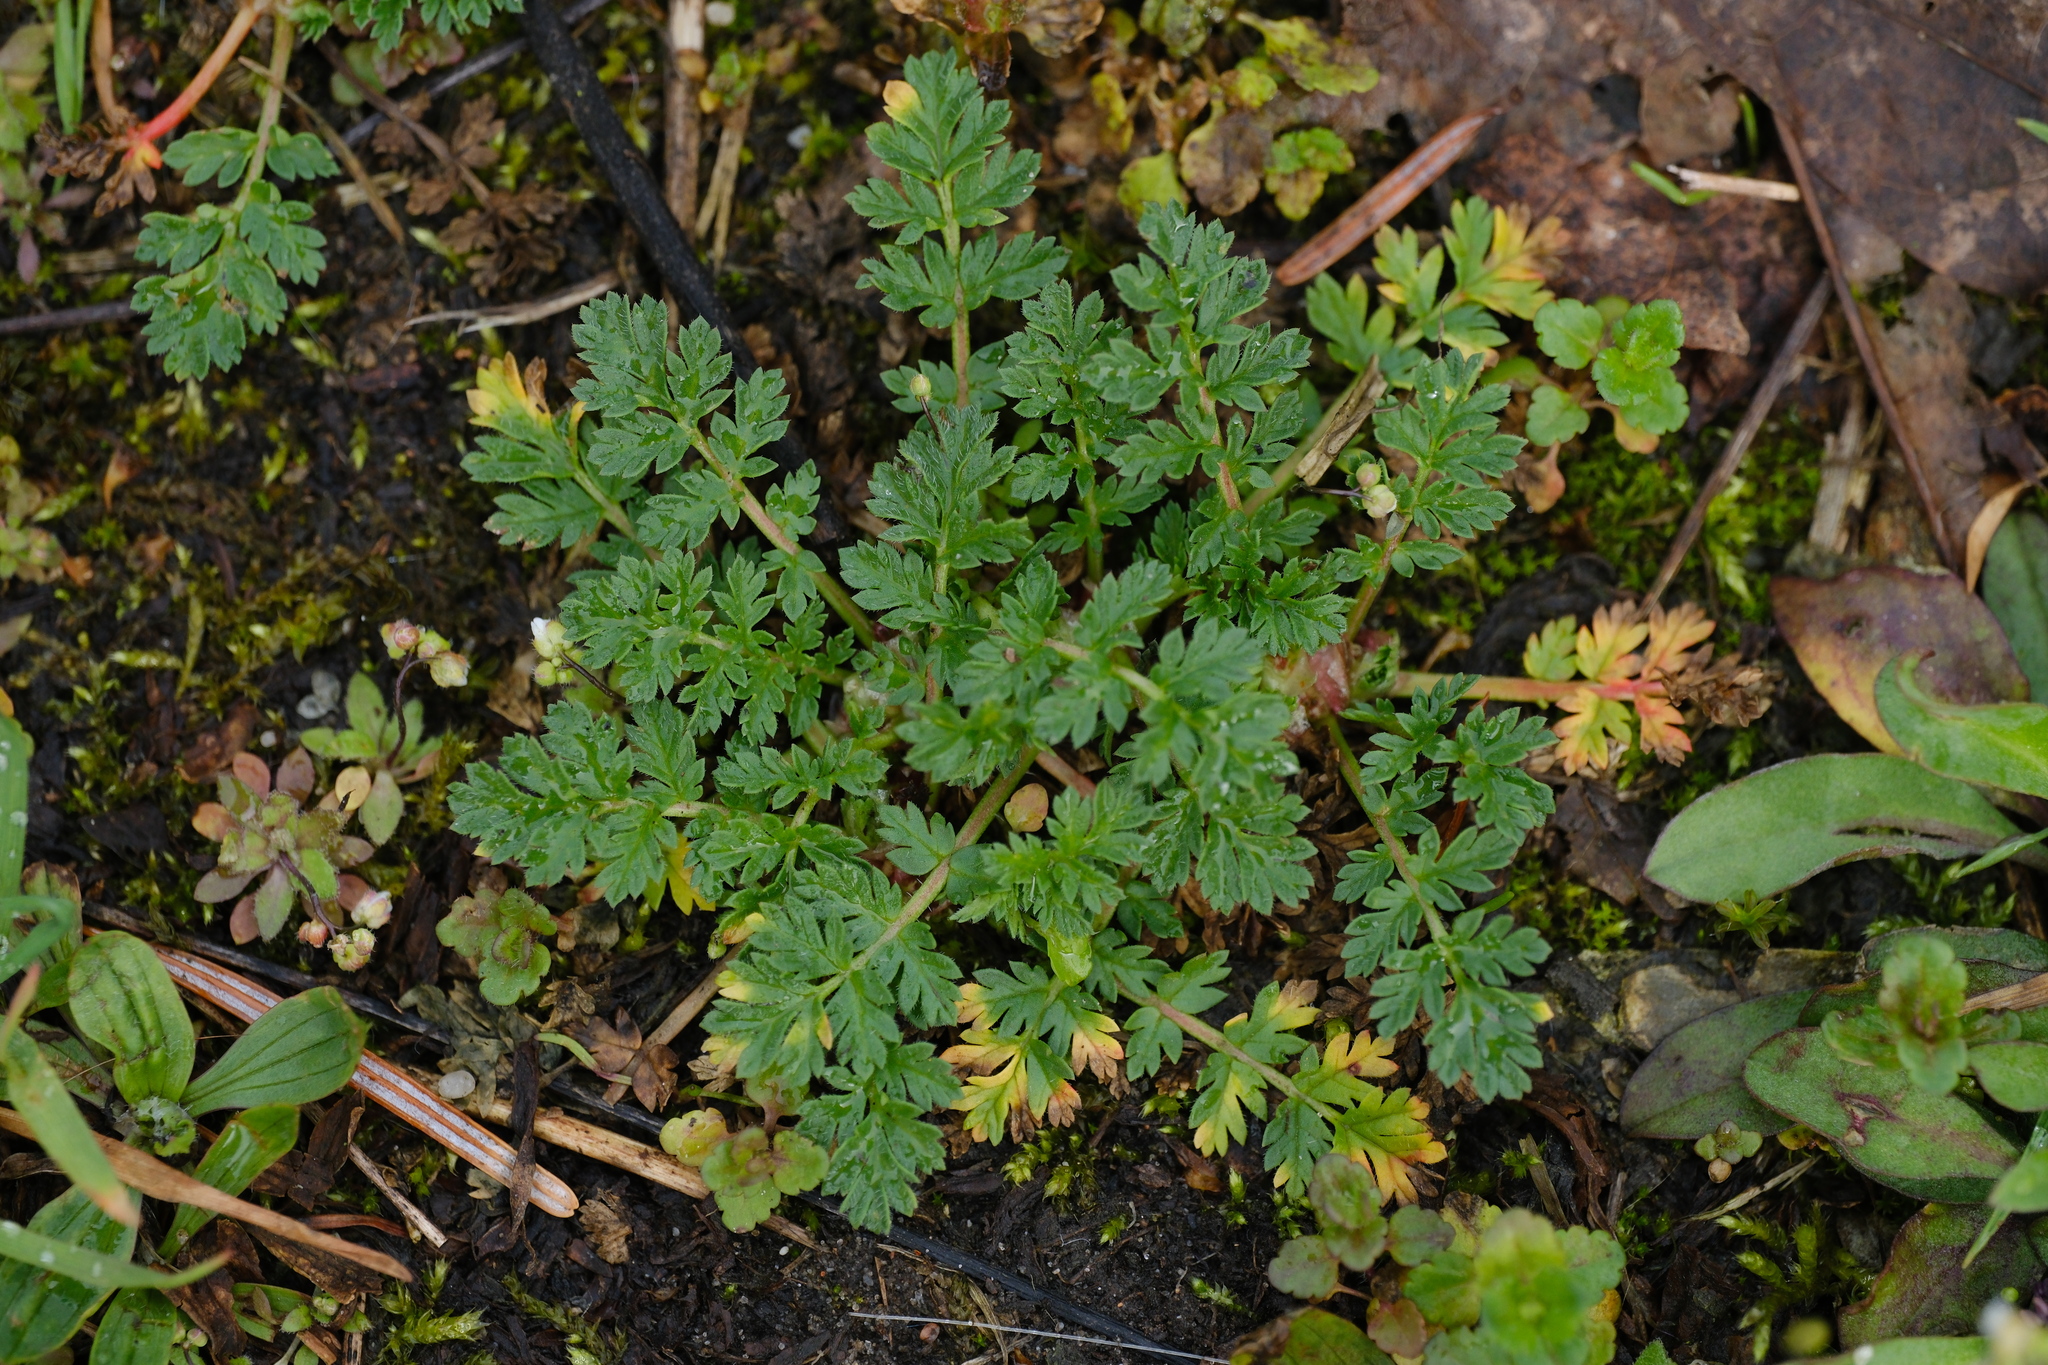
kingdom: Plantae
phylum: Tracheophyta
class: Magnoliopsida
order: Geraniales
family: Geraniaceae
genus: Erodium
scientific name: Erodium cicutarium
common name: Common stork's-bill
